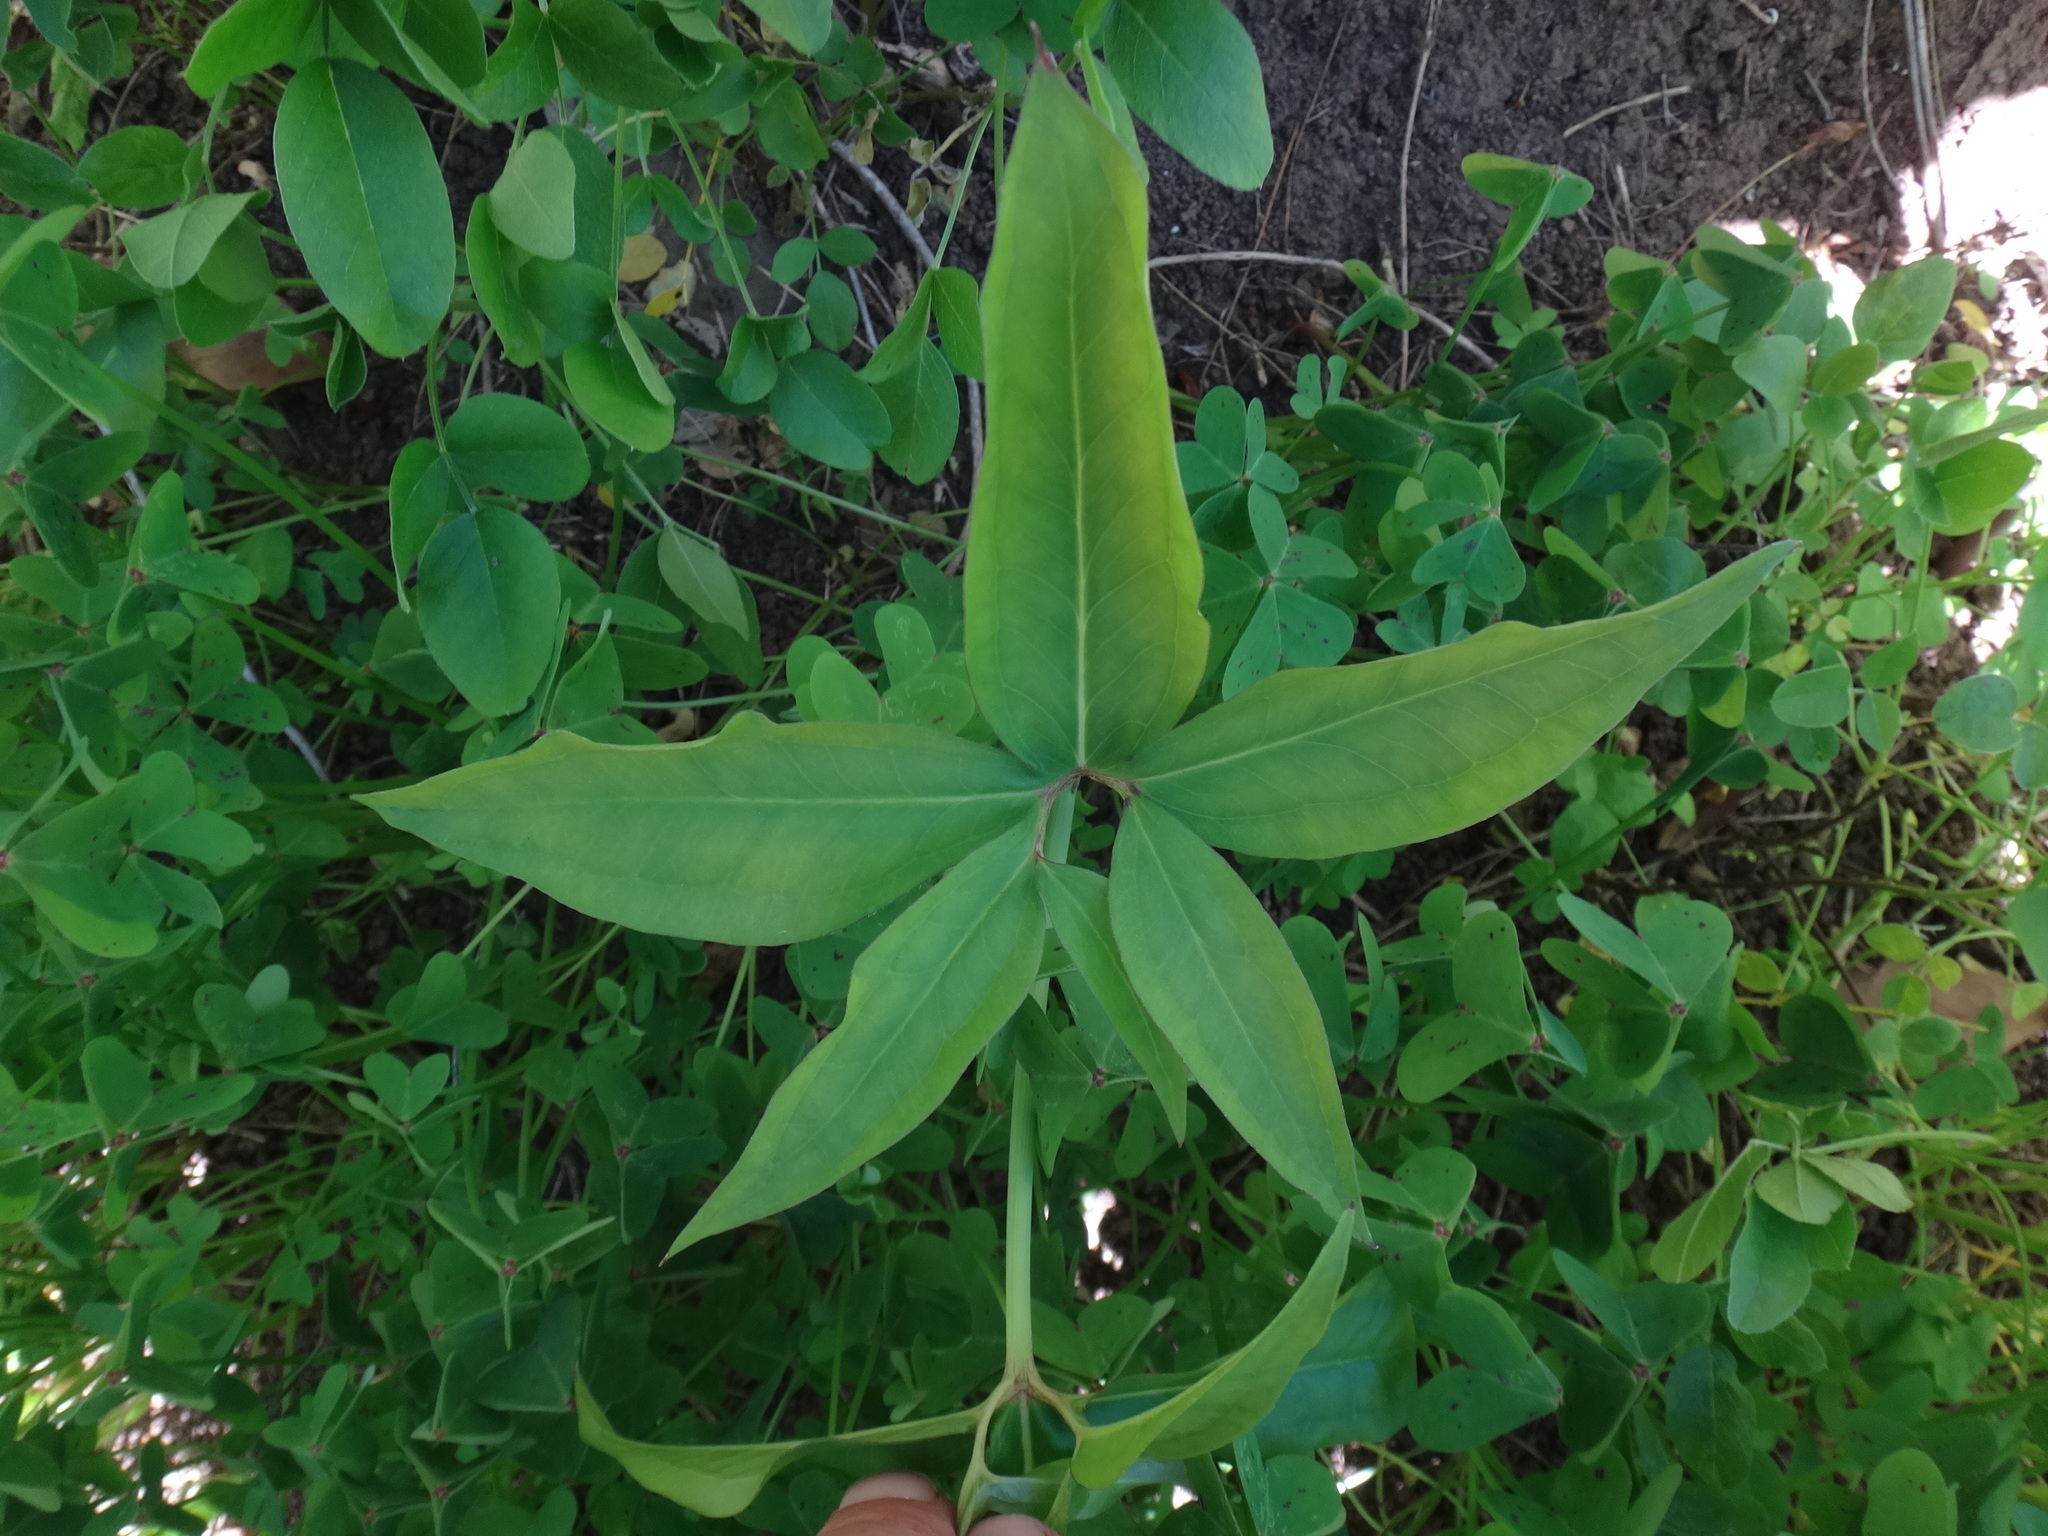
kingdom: Plantae
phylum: Tracheophyta
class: Liliopsida
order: Alismatales
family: Araceae
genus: Dracunculus
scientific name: Dracunculus canariensis
